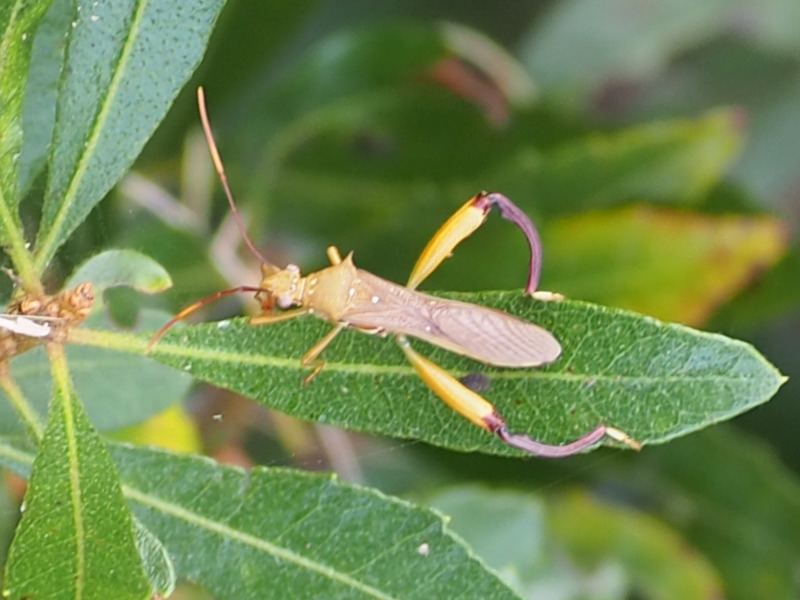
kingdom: Animalia
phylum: Arthropoda
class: Insecta
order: Hemiptera
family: Alydidae
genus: Hyalymenus
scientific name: Hyalymenus longispinus
